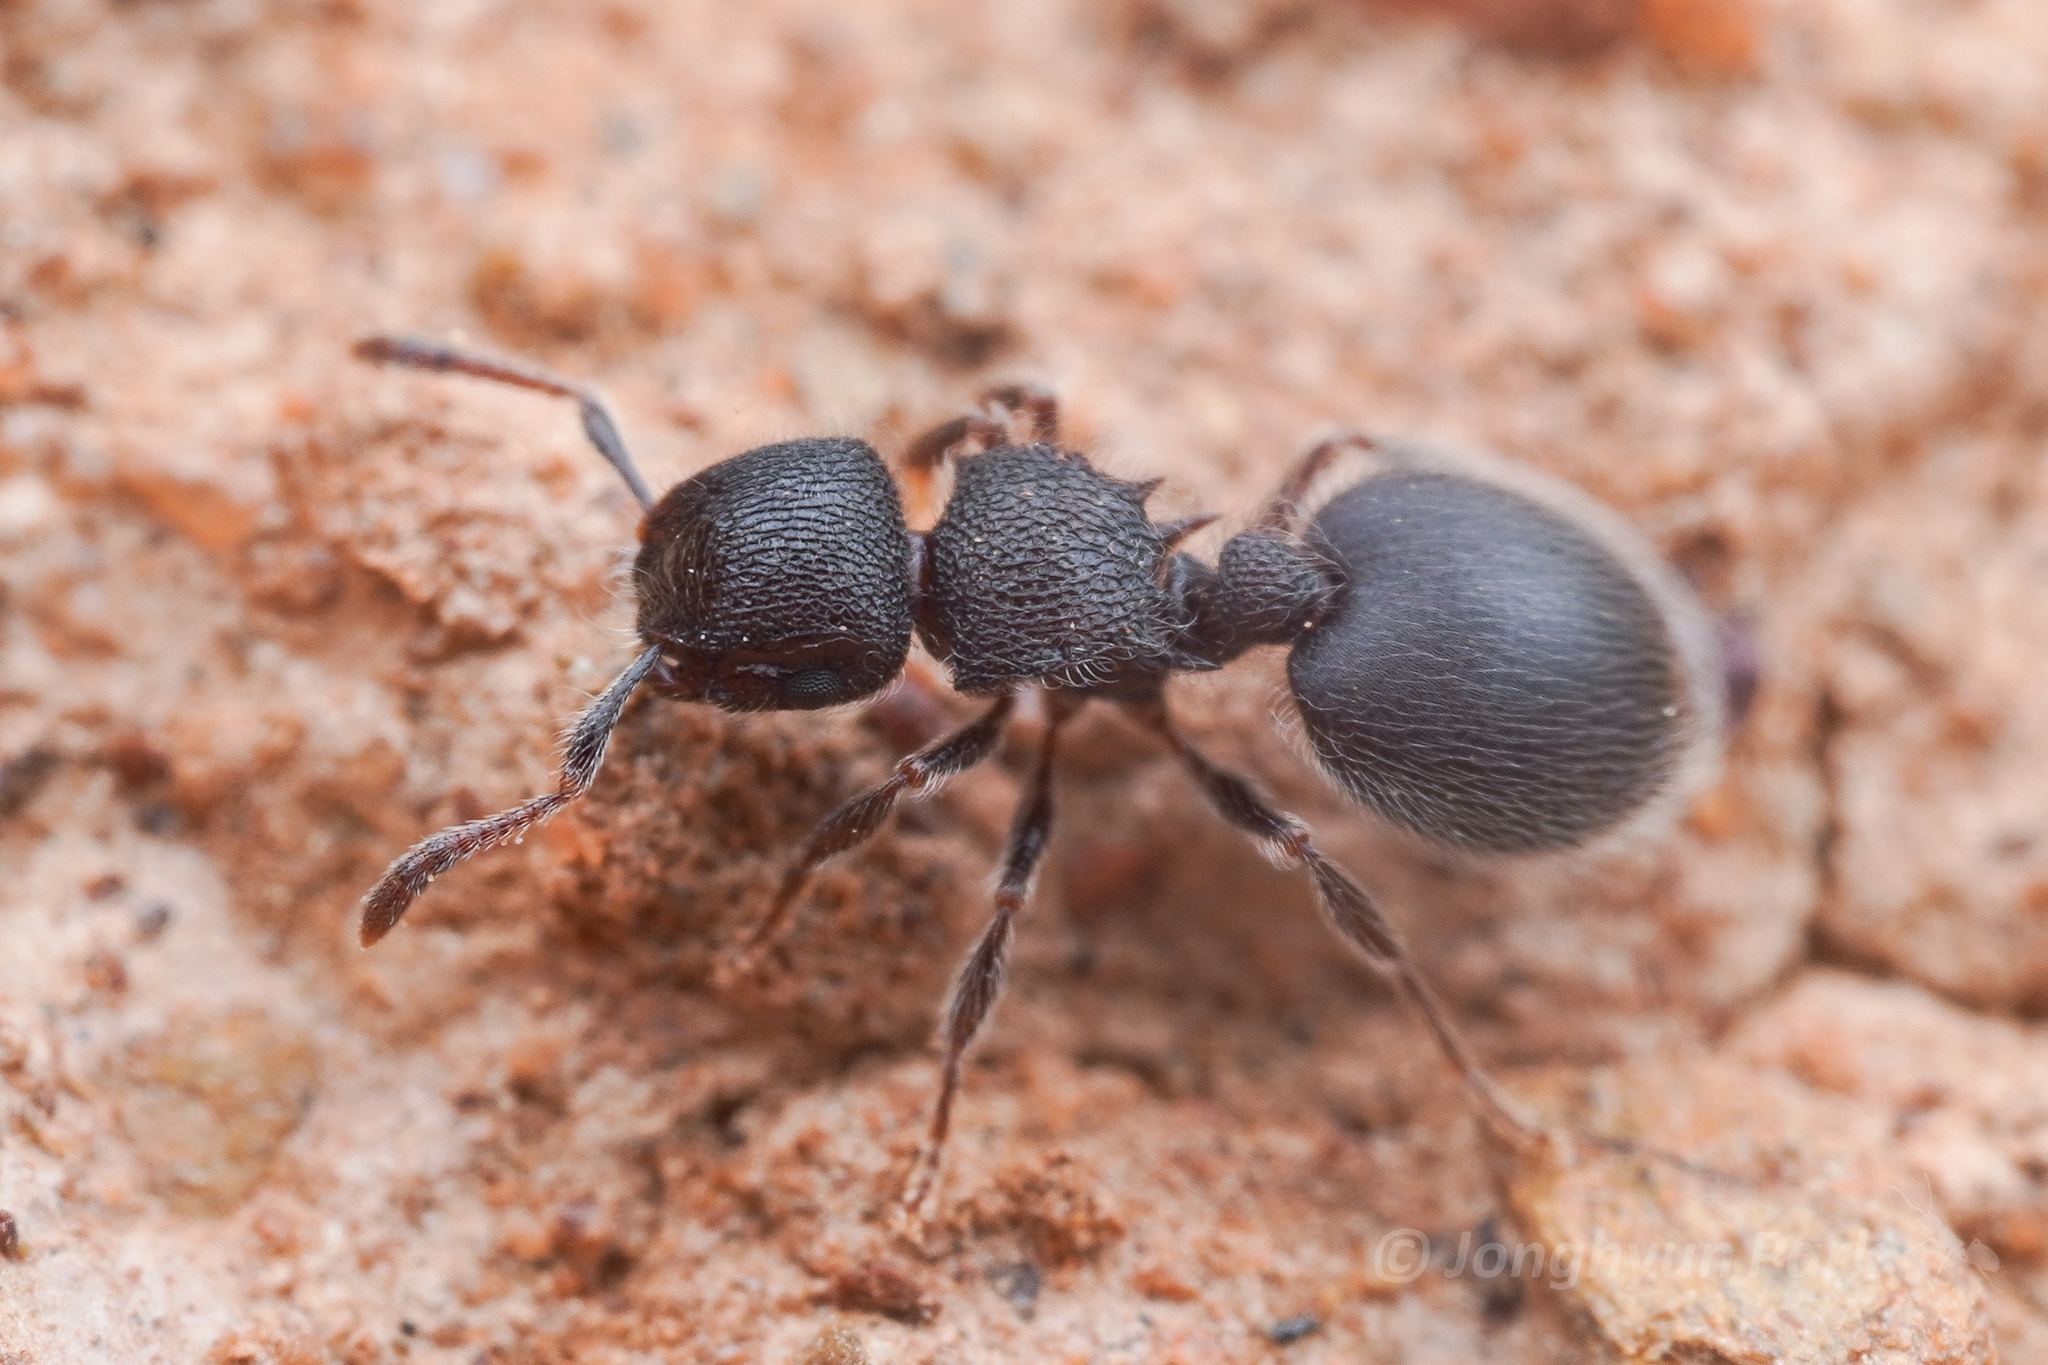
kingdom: Animalia
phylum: Arthropoda
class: Insecta
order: Hymenoptera
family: Formicidae
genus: Meranoplus
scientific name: Meranoplus peringueyi
